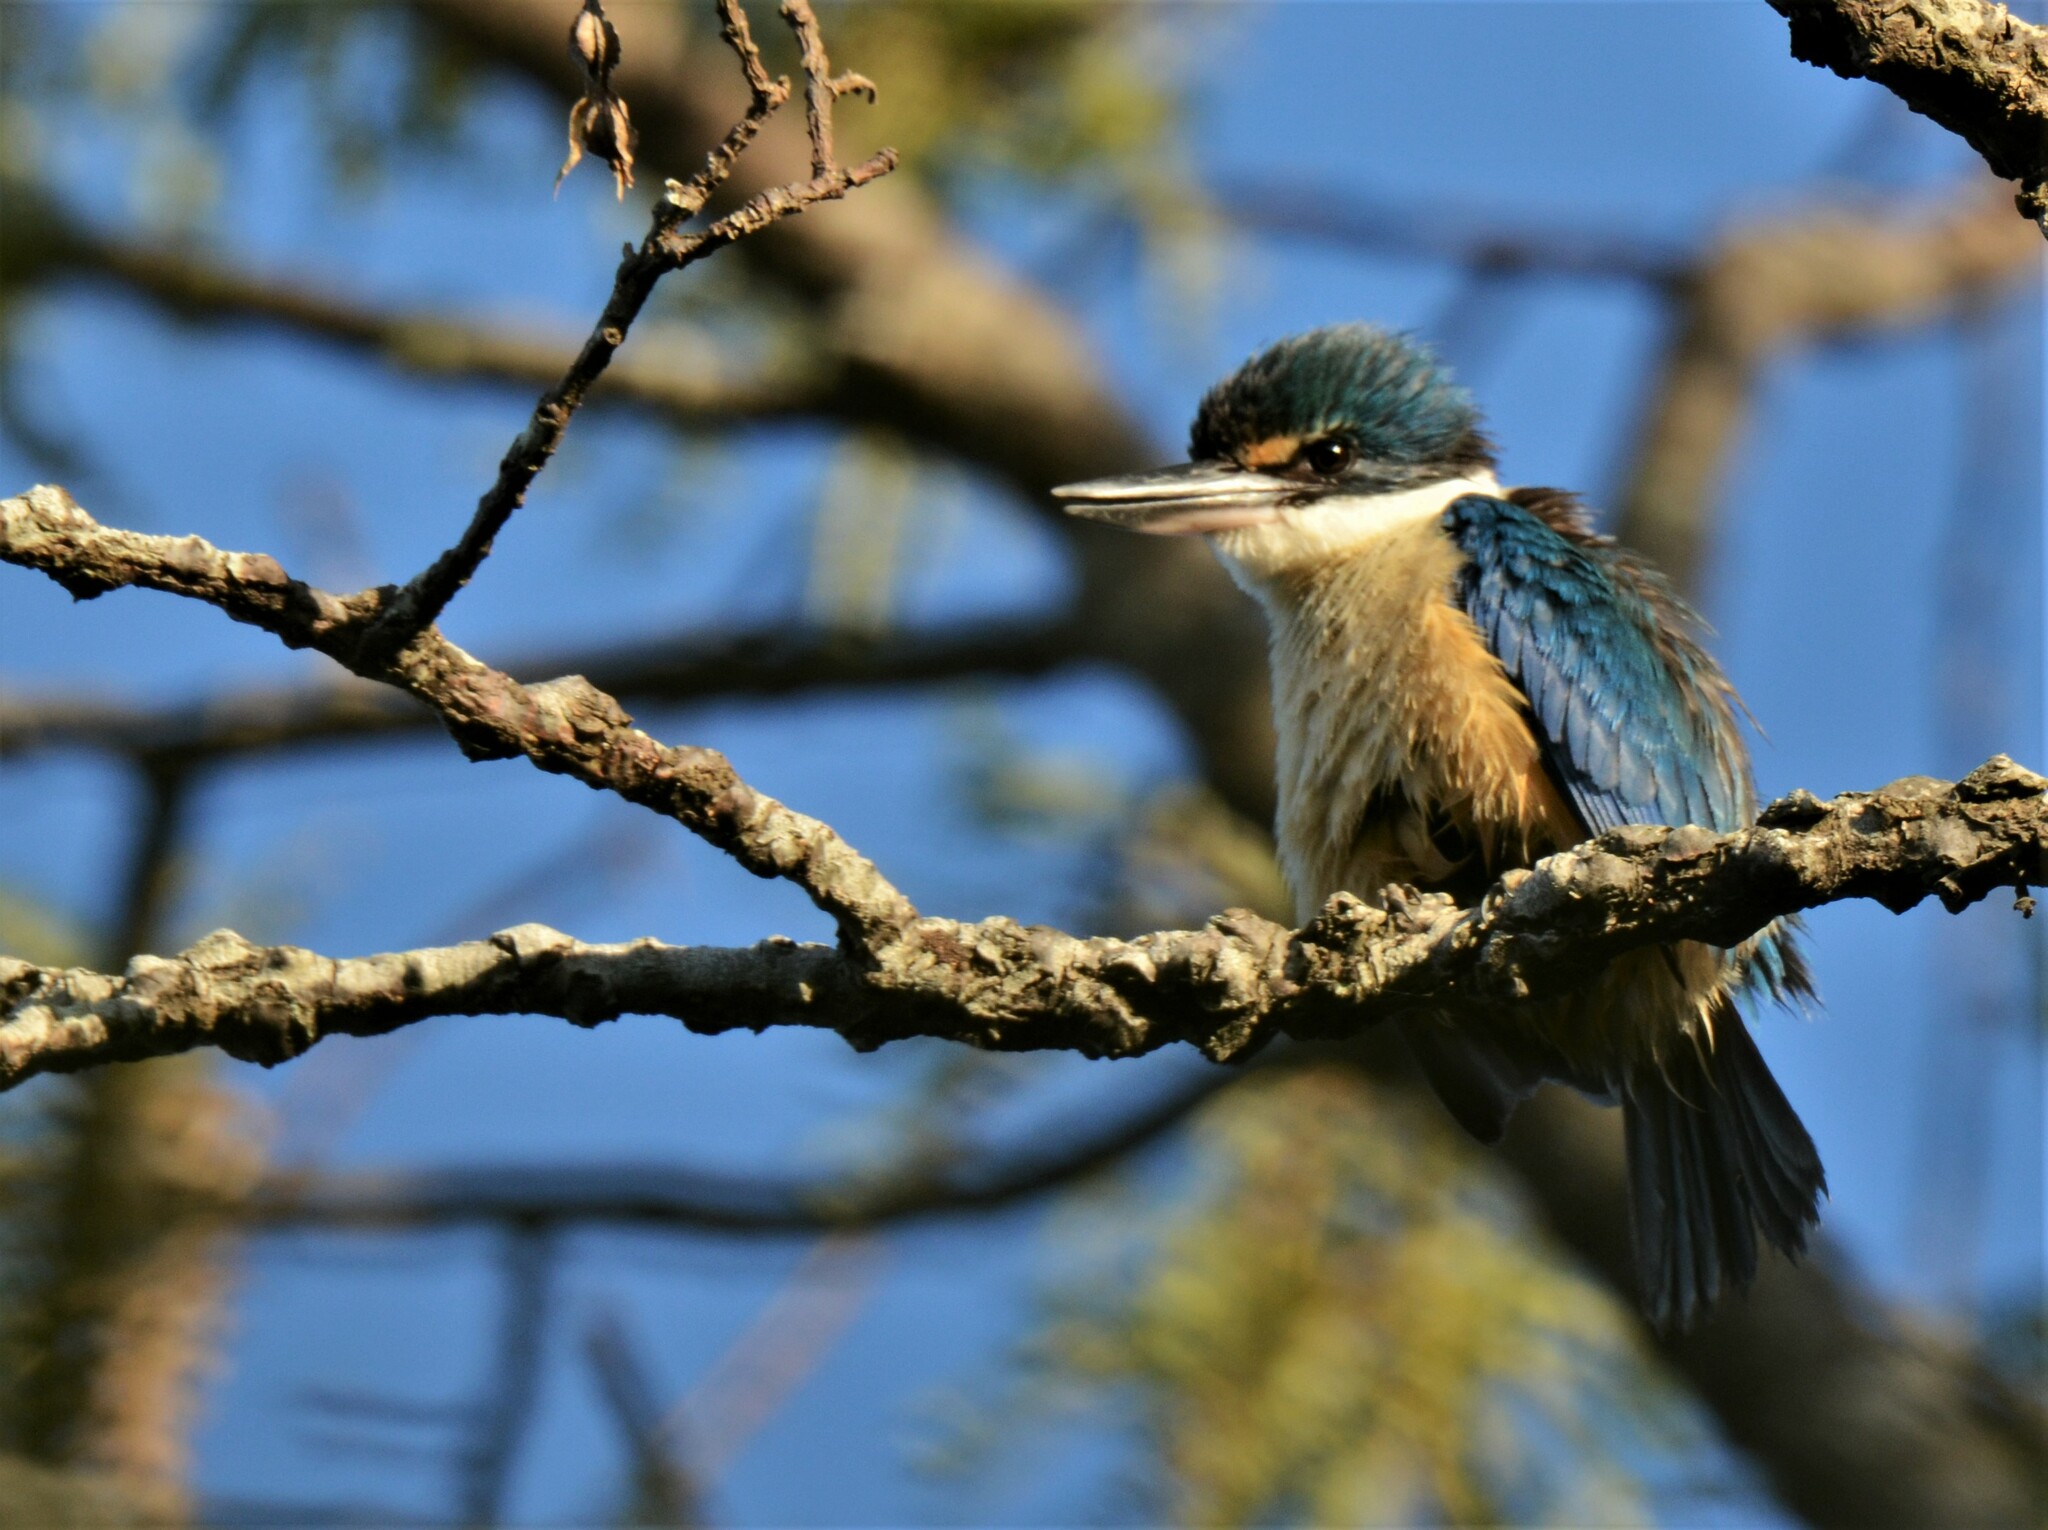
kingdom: Animalia
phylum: Chordata
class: Aves
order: Coraciiformes
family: Alcedinidae
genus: Todiramphus
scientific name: Todiramphus sanctus
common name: Sacred kingfisher
